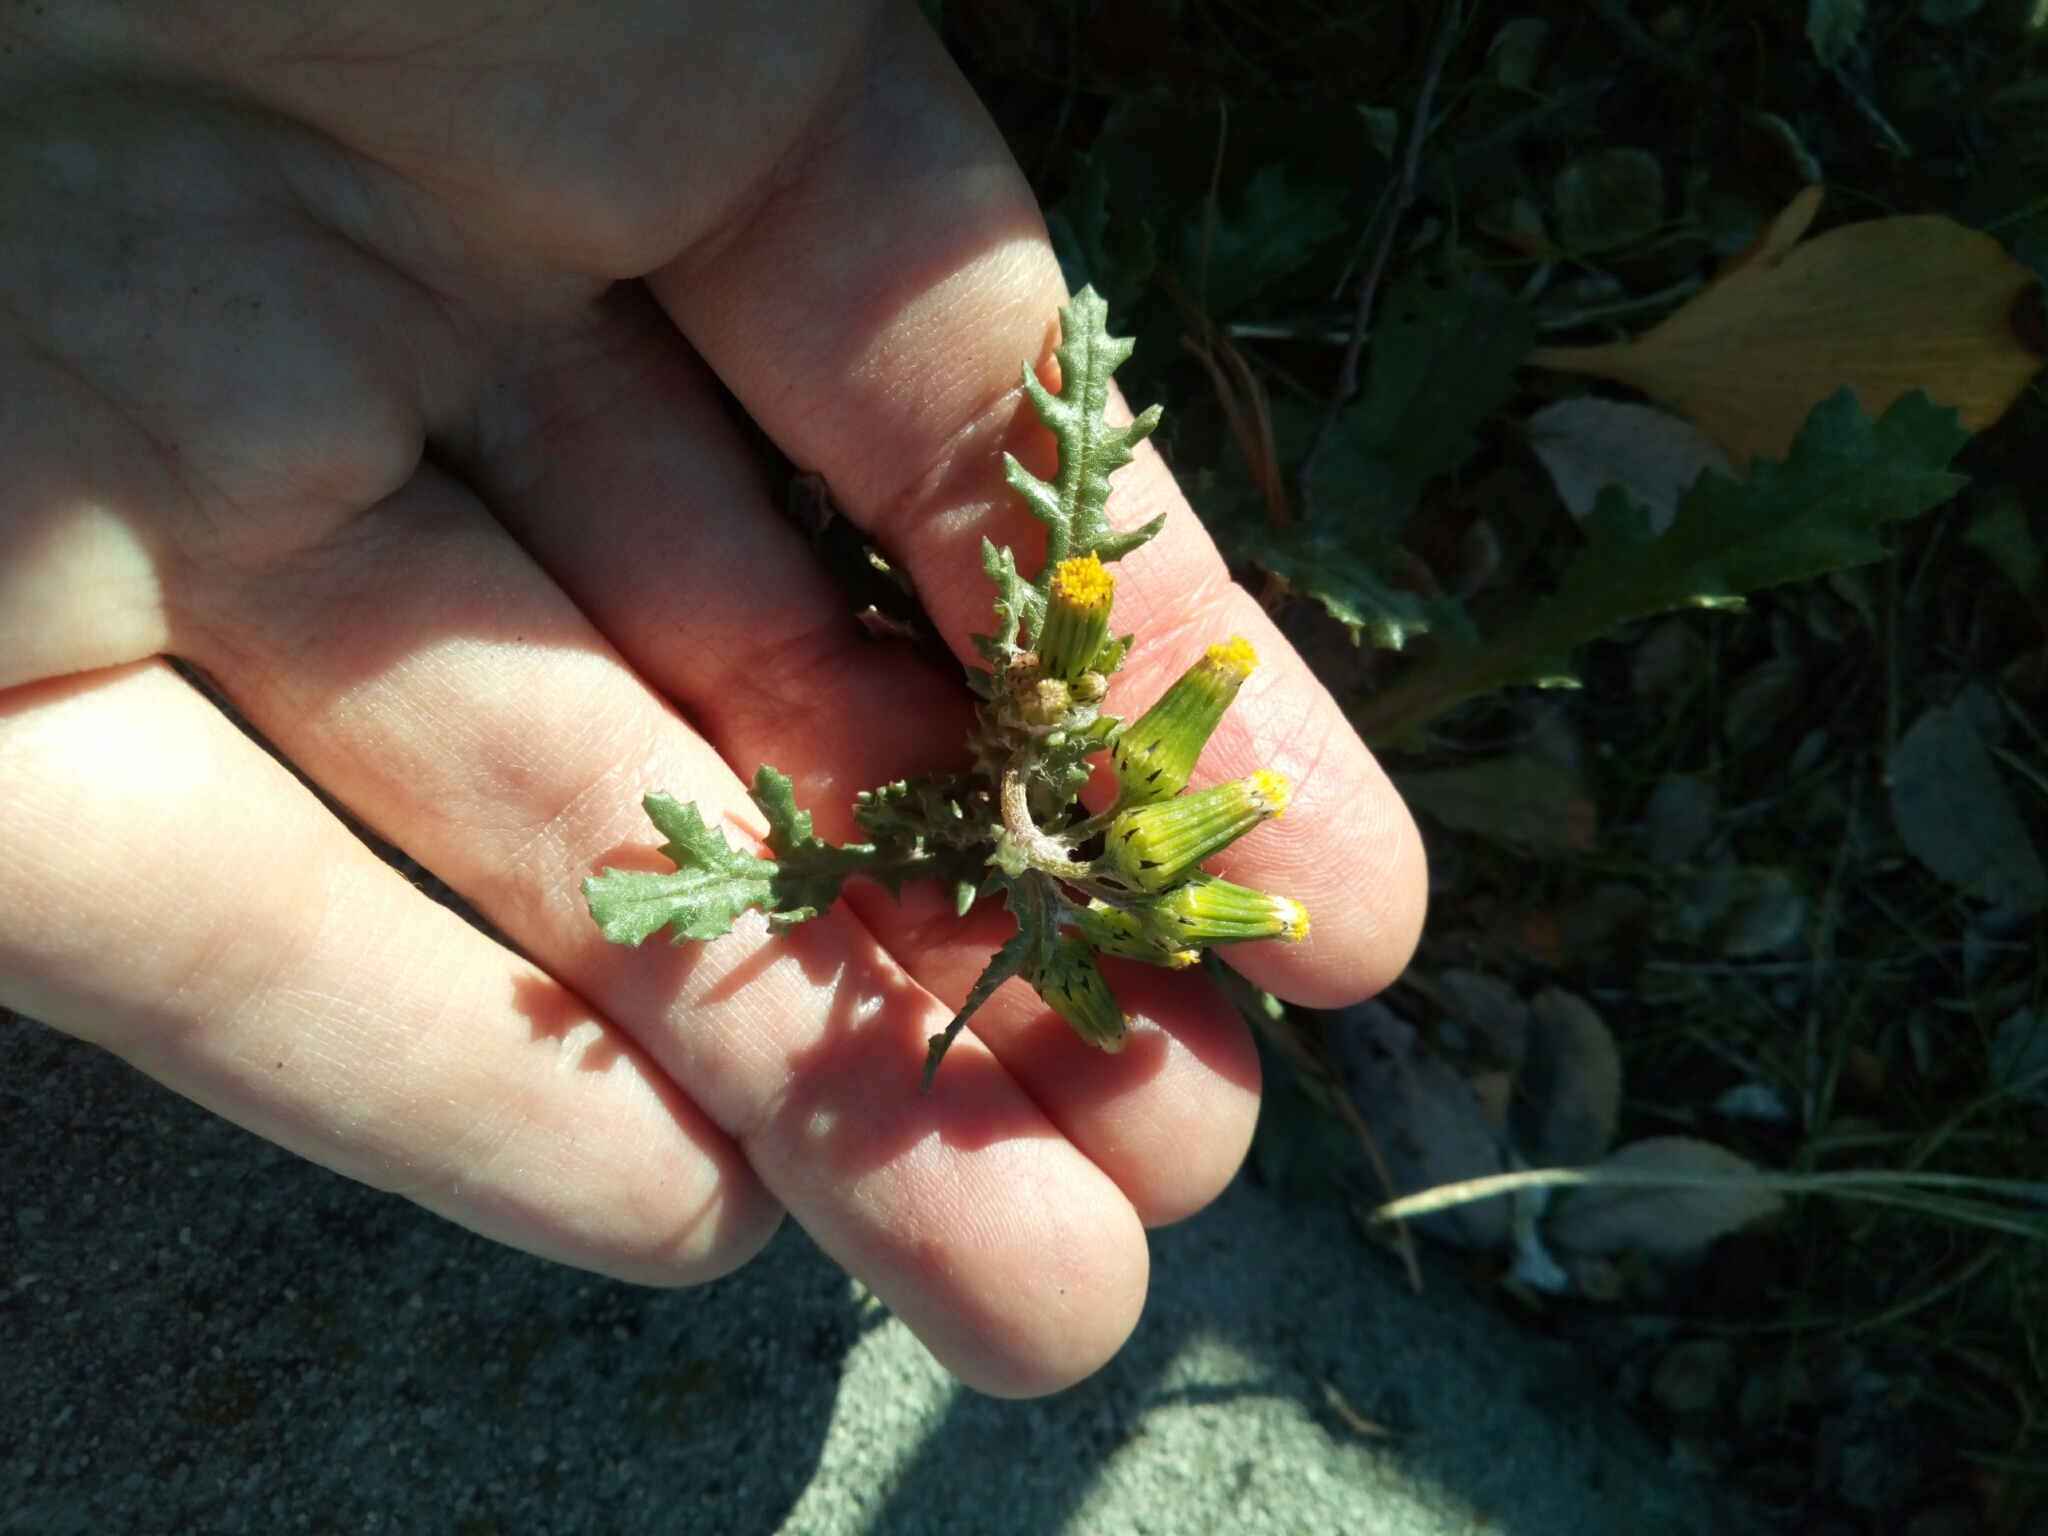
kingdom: Plantae
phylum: Tracheophyta
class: Magnoliopsida
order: Asterales
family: Asteraceae
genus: Senecio
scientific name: Senecio vulgaris
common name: Old-man-in-the-spring
